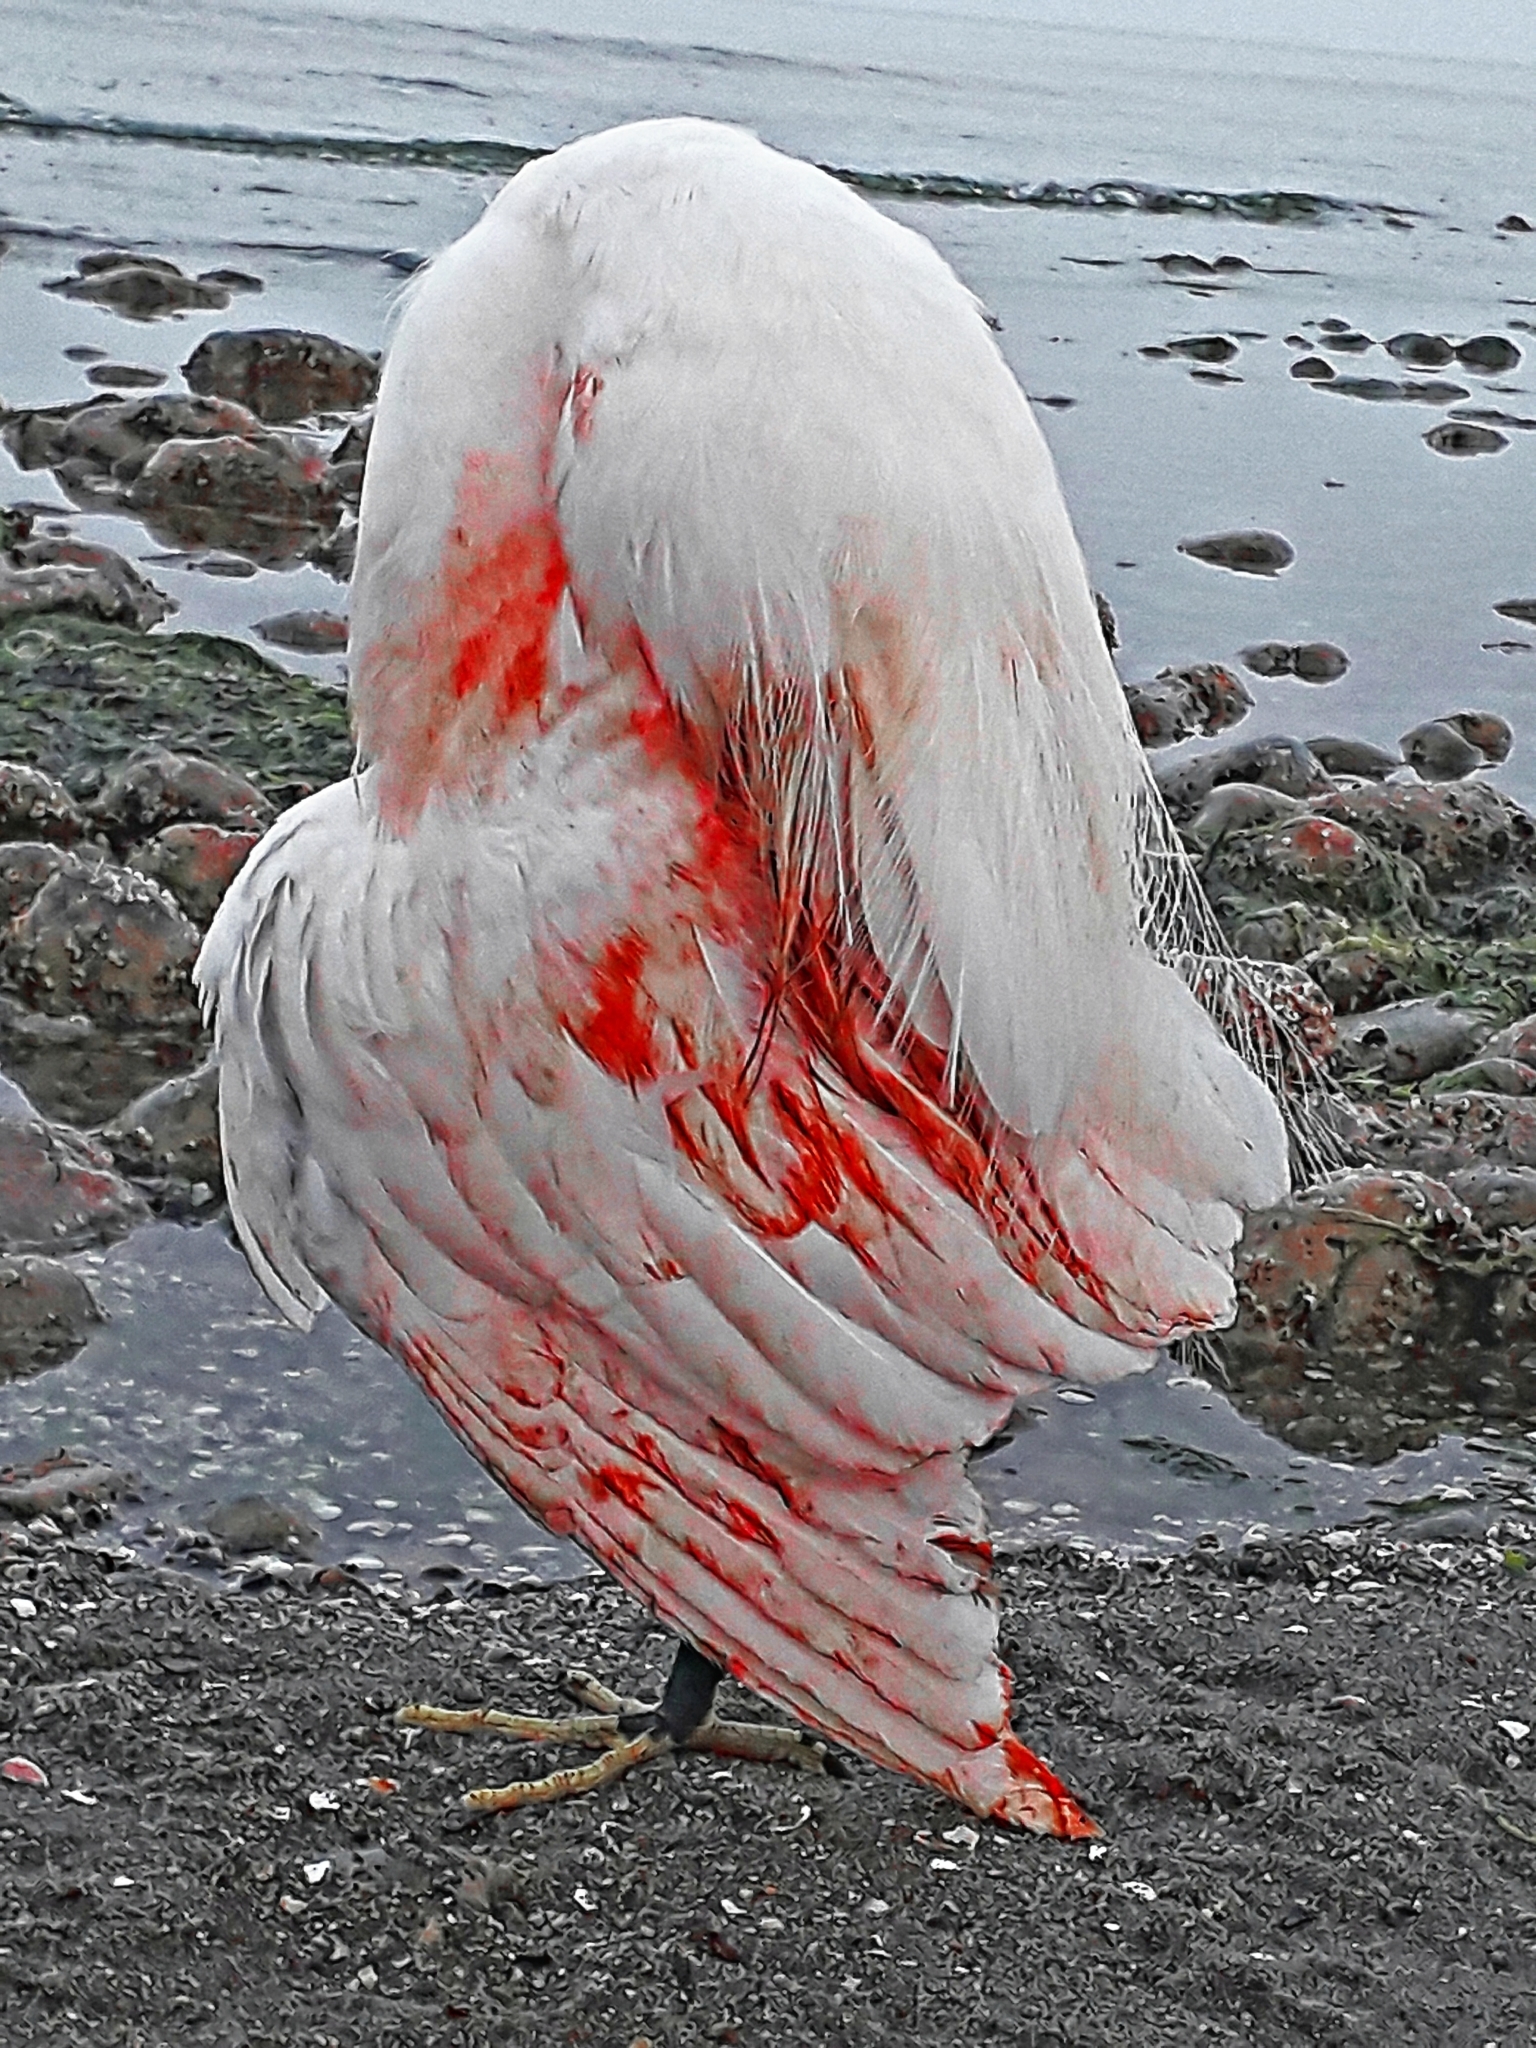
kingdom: Animalia
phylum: Chordata
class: Aves
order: Pelecaniformes
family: Ardeidae
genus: Egretta
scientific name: Egretta garzetta
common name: Little egret
